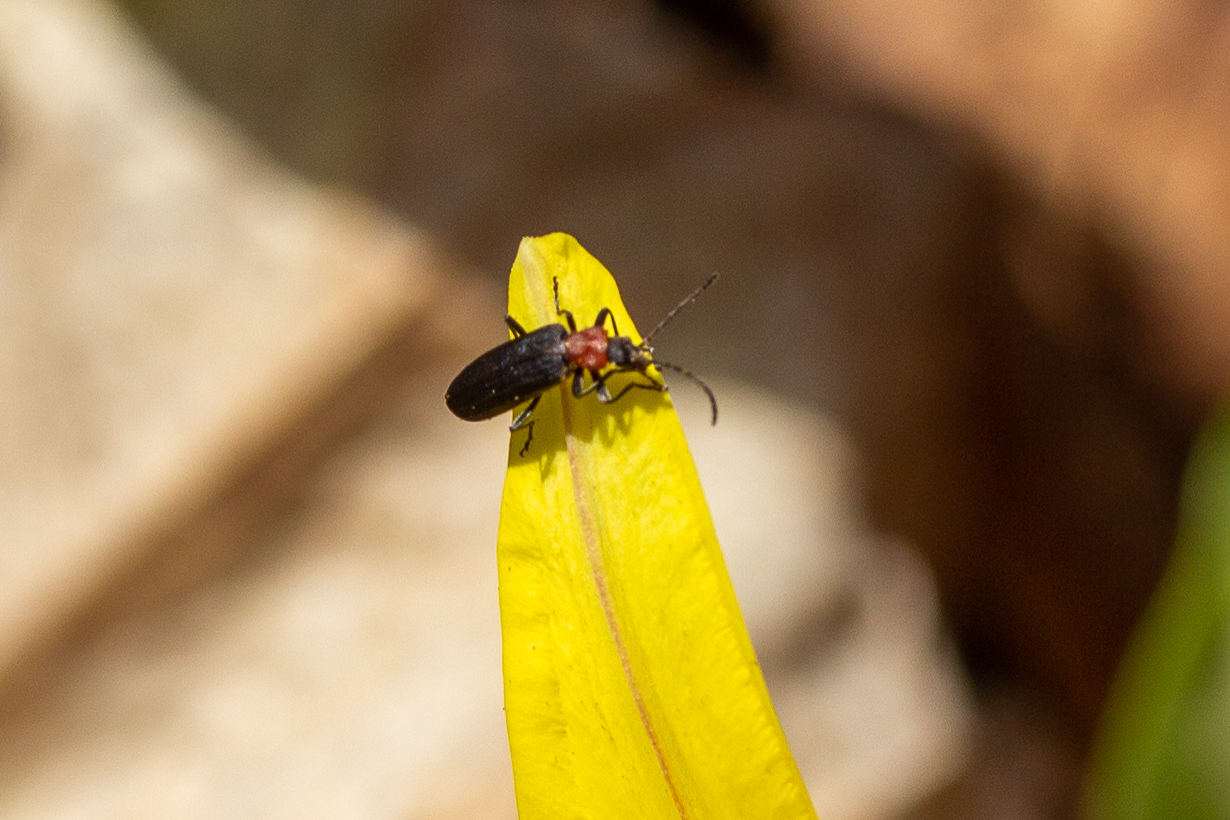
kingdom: Animalia
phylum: Arthropoda
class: Insecta
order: Coleoptera
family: Oedemeridae
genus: Ischnomera
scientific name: Ischnomera
